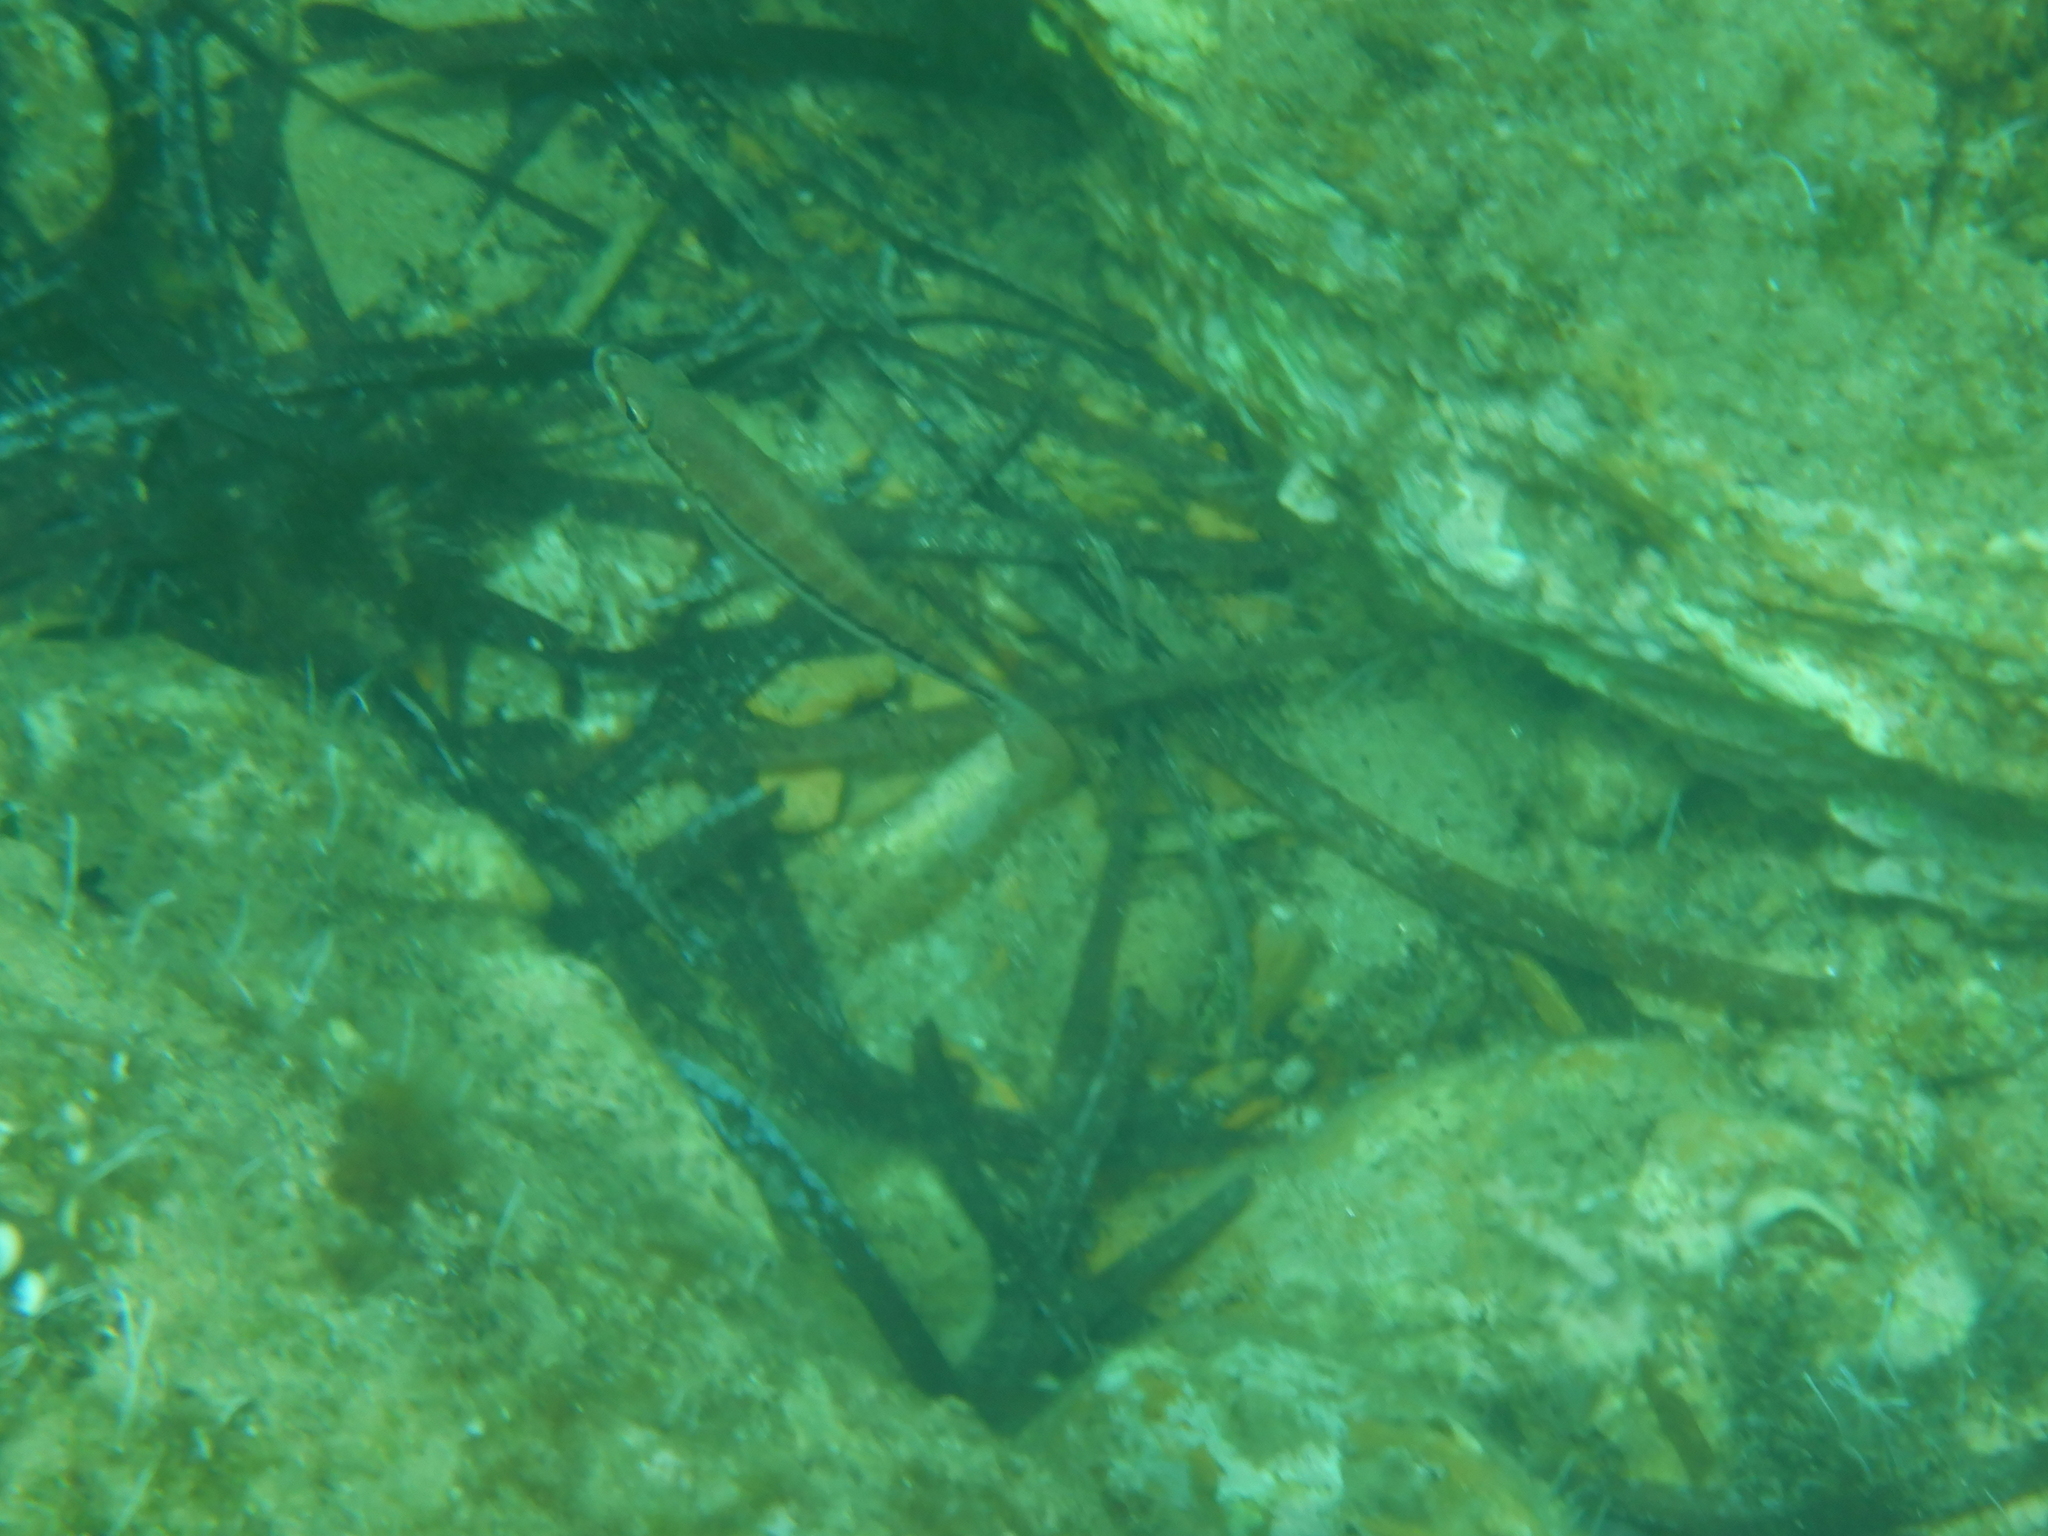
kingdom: Animalia
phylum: Chordata
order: Perciformes
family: Serranidae
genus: Serranus
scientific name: Serranus cabrilla
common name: Comber
